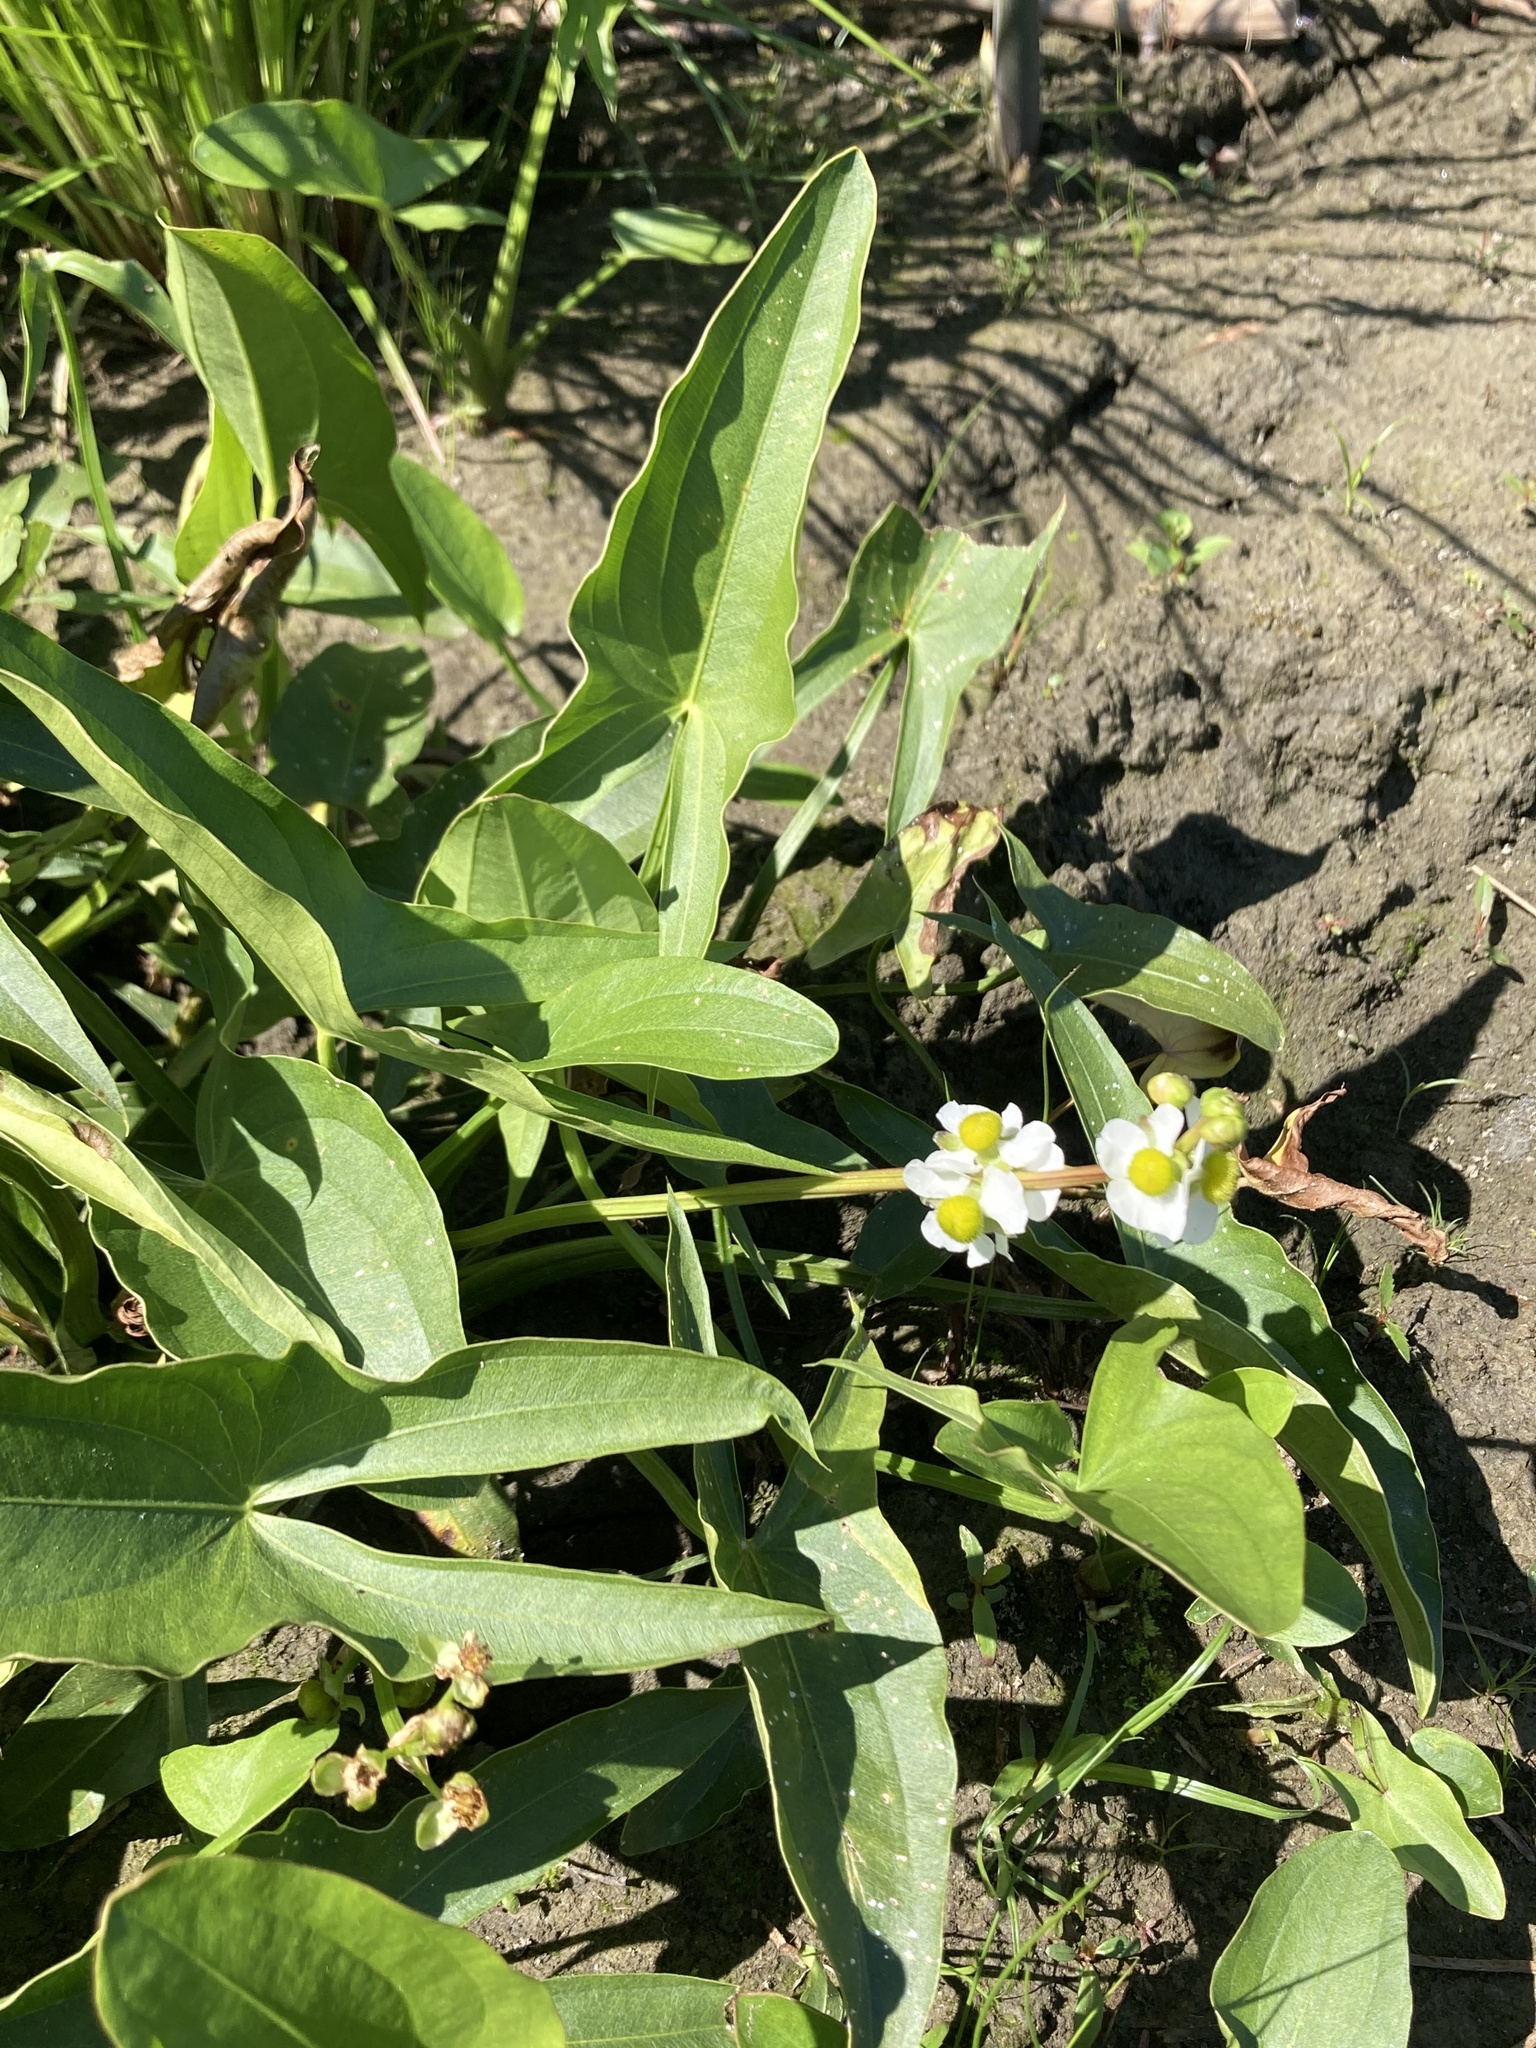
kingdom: Plantae
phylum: Tracheophyta
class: Liliopsida
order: Alismatales
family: Alismataceae
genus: Sagittaria
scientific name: Sagittaria latifolia
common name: Duck-potato
